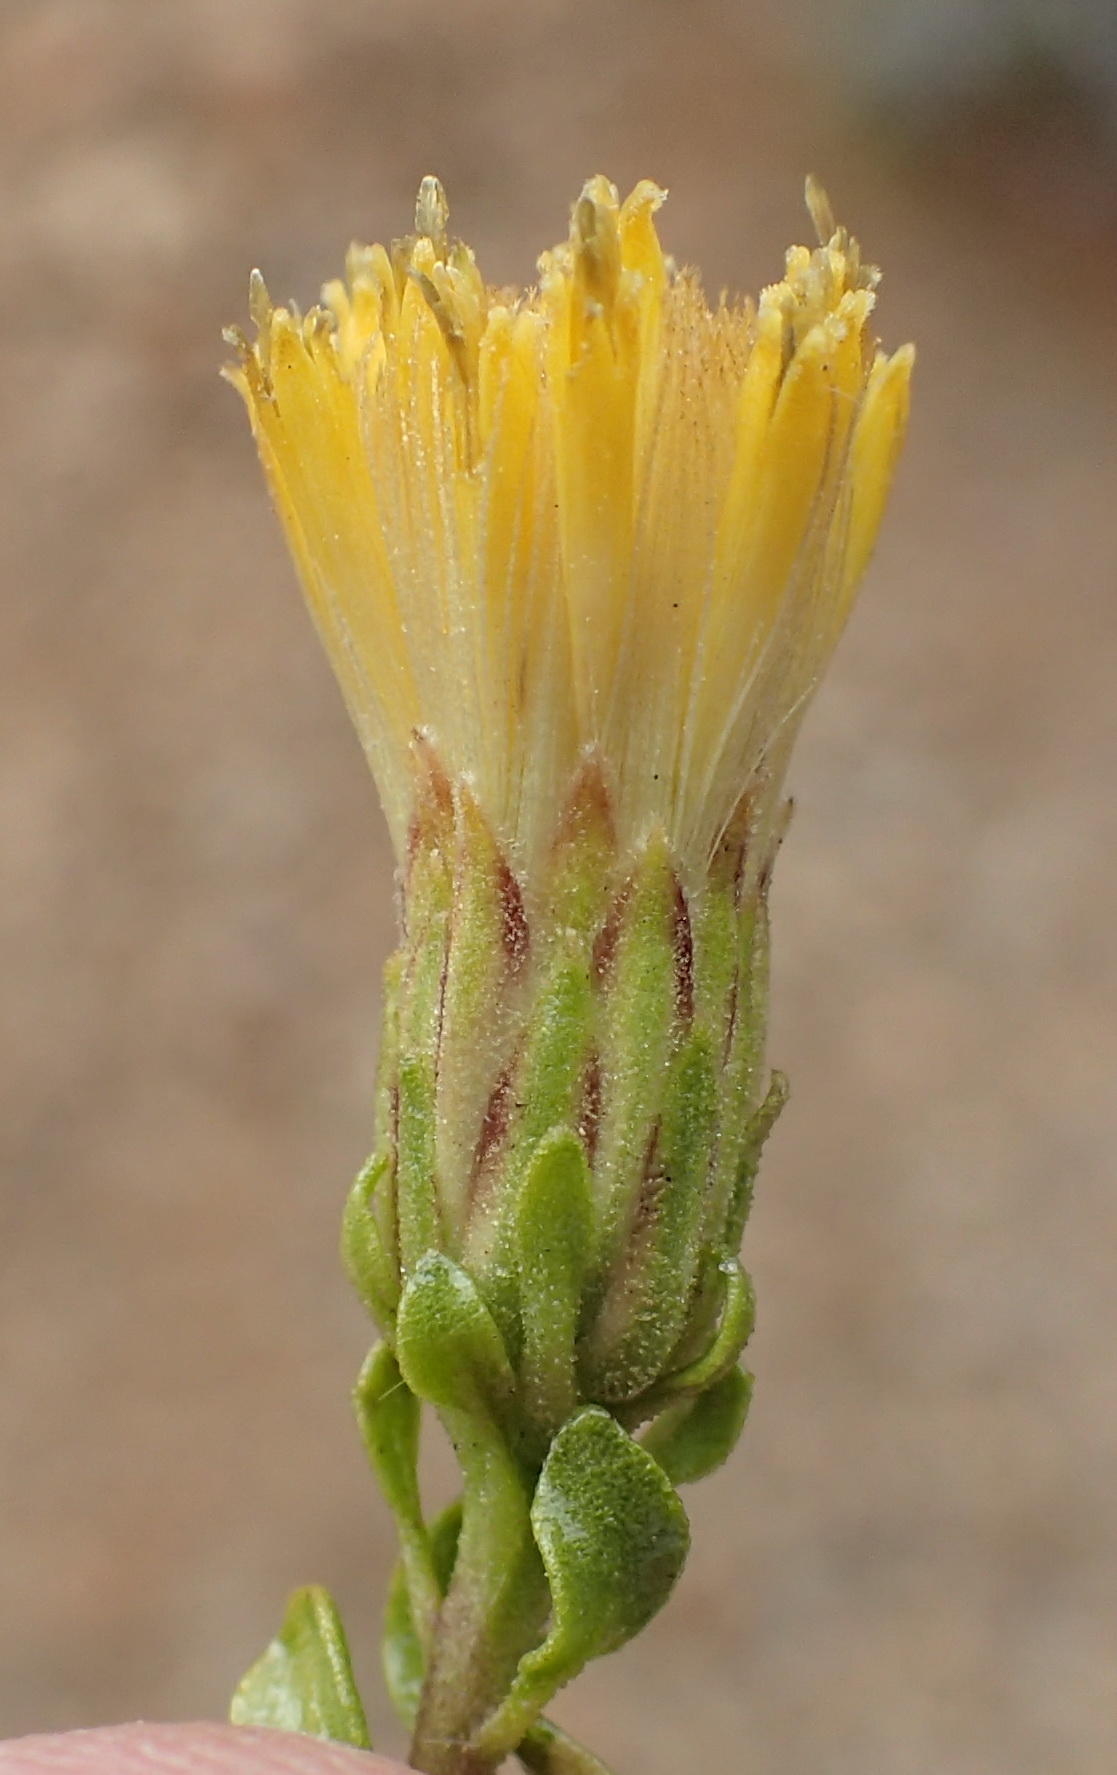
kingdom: Plantae
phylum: Tracheophyta
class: Magnoliopsida
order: Asterales
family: Asteraceae
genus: Pegolettia
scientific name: Pegolettia baccaridifolia
